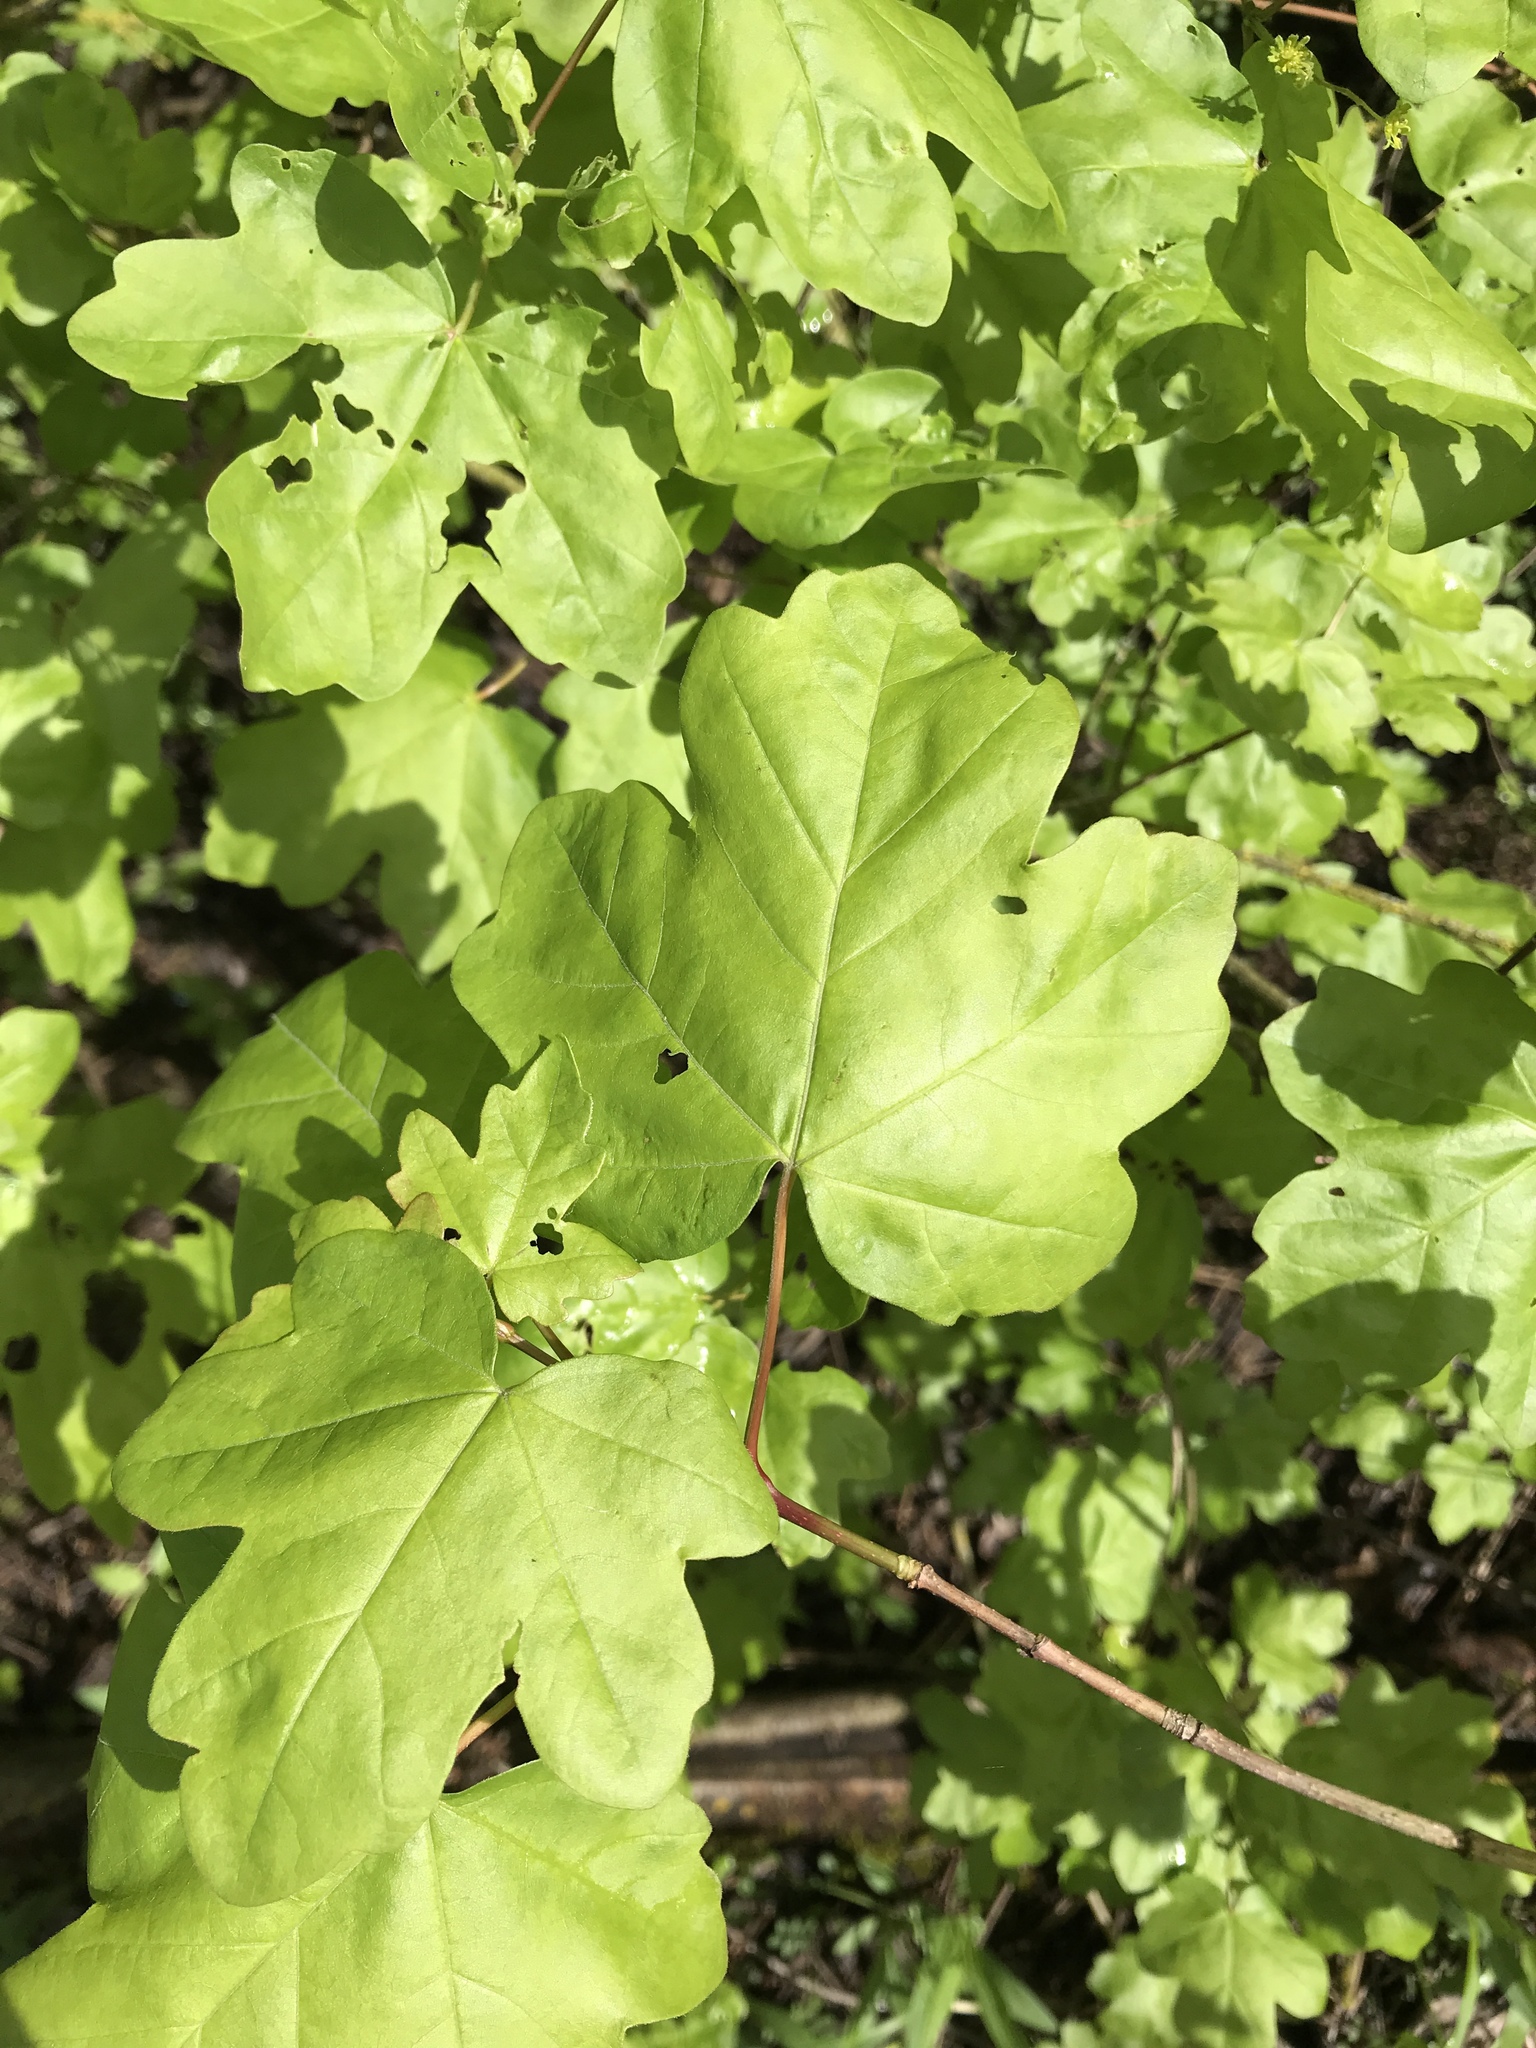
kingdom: Plantae
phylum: Tracheophyta
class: Magnoliopsida
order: Sapindales
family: Sapindaceae
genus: Acer
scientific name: Acer campestre
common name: Field maple
